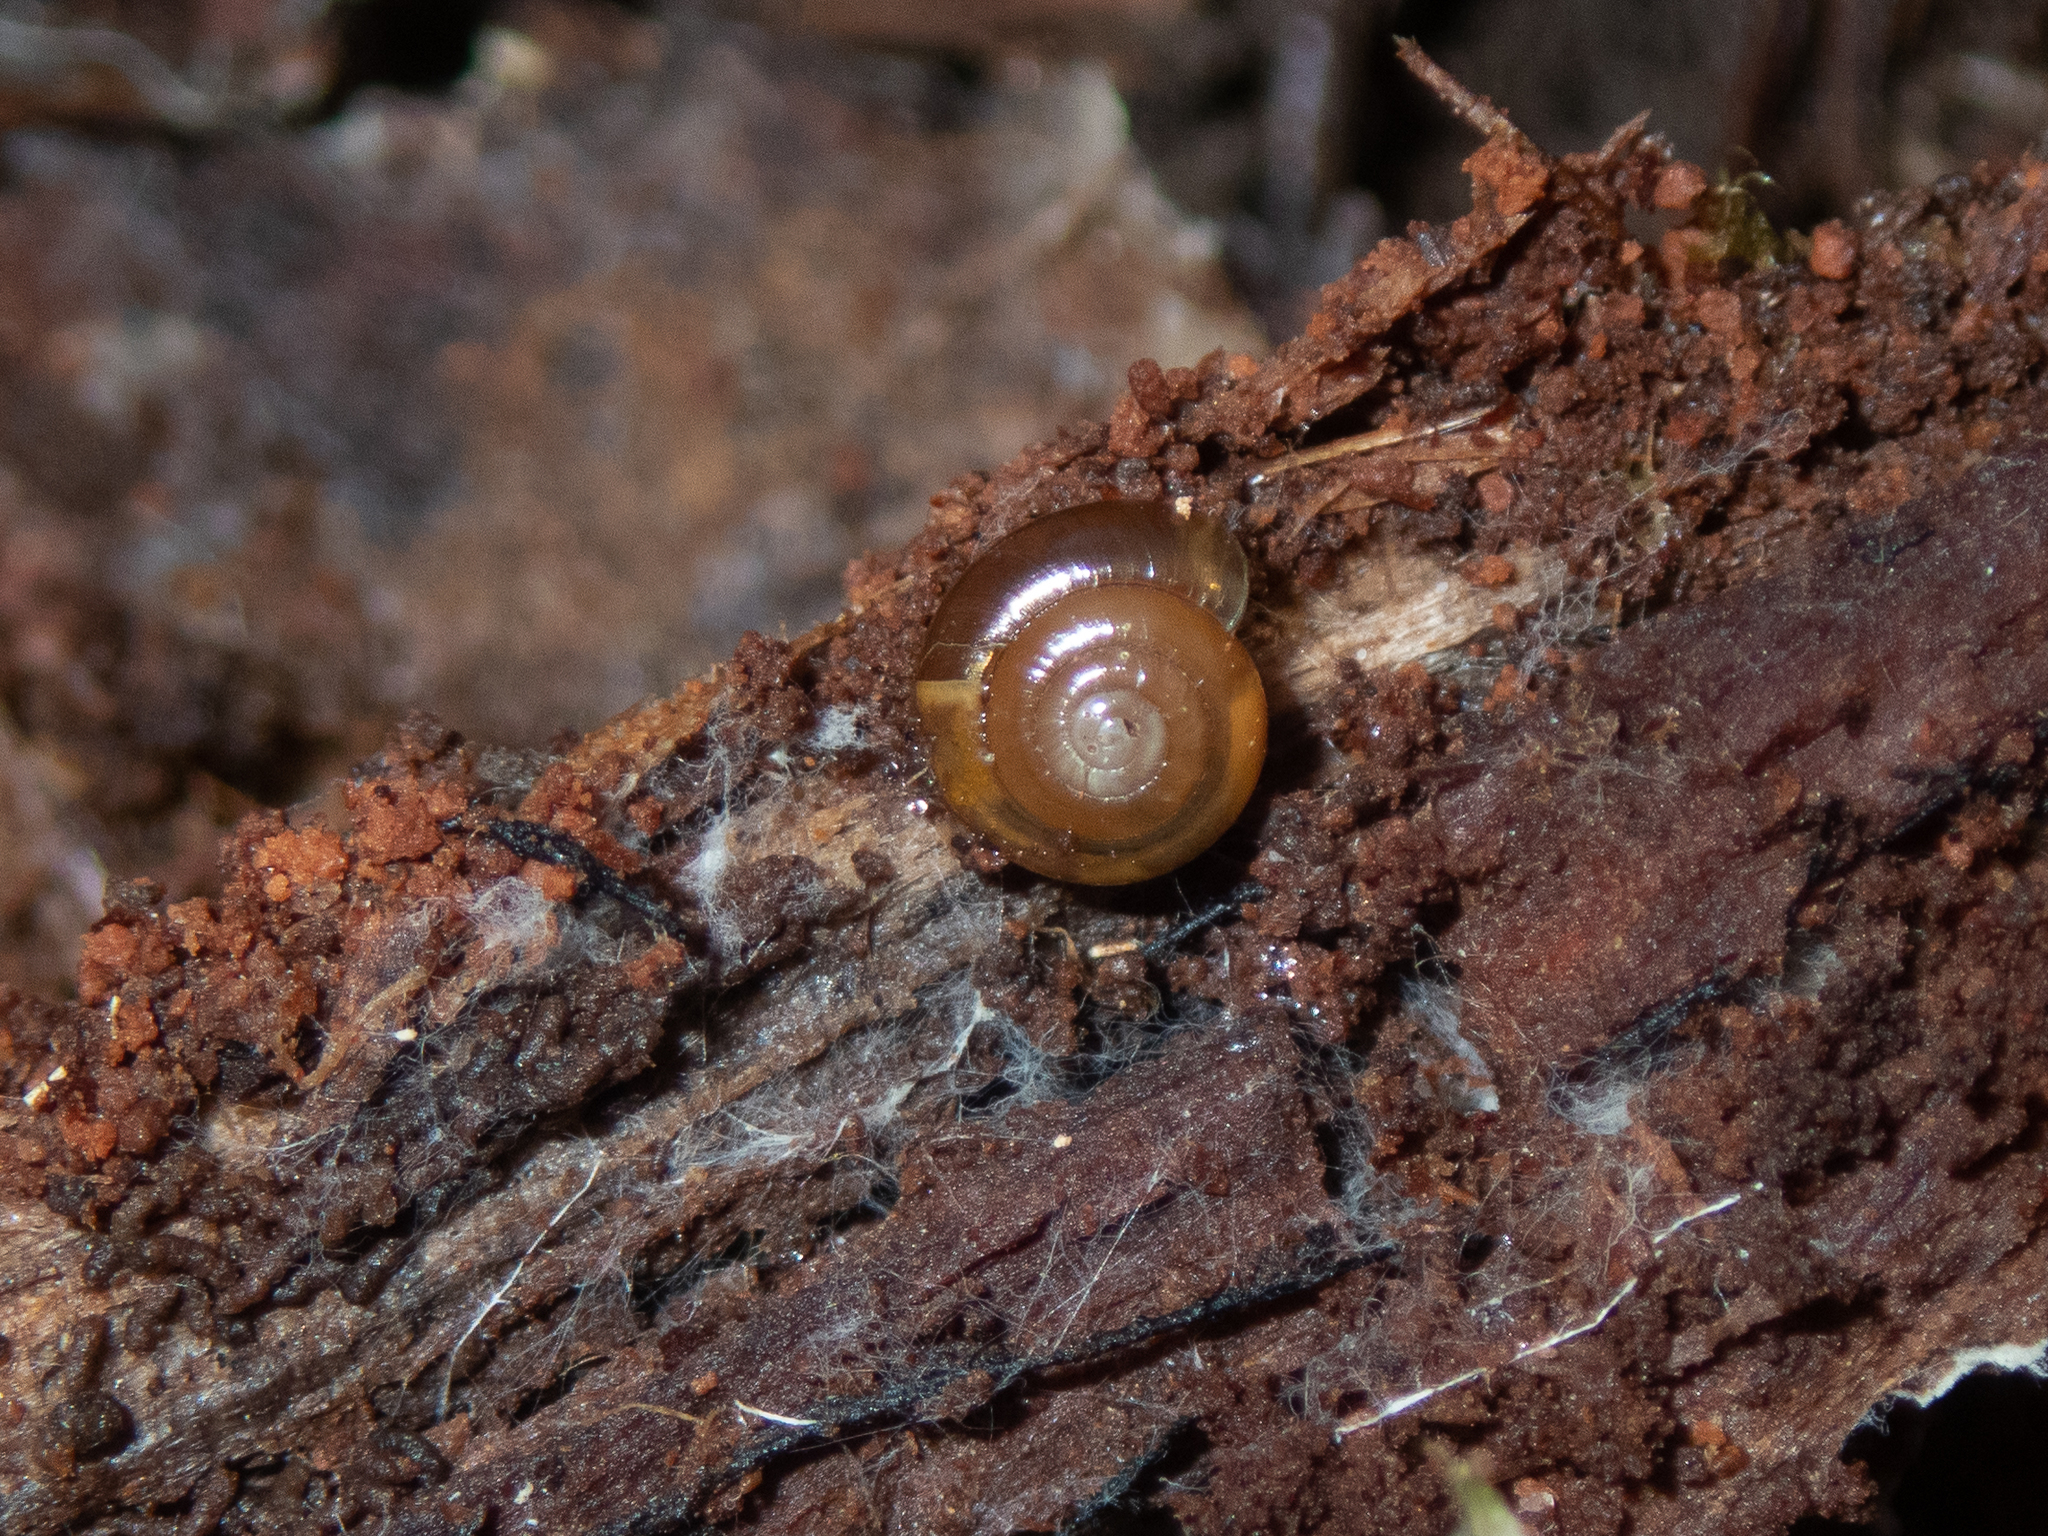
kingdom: Animalia
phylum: Mollusca
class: Gastropoda
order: Stylommatophora
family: Gastrodontidae
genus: Zonitoides
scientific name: Zonitoides arboreus
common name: Quick gloss
